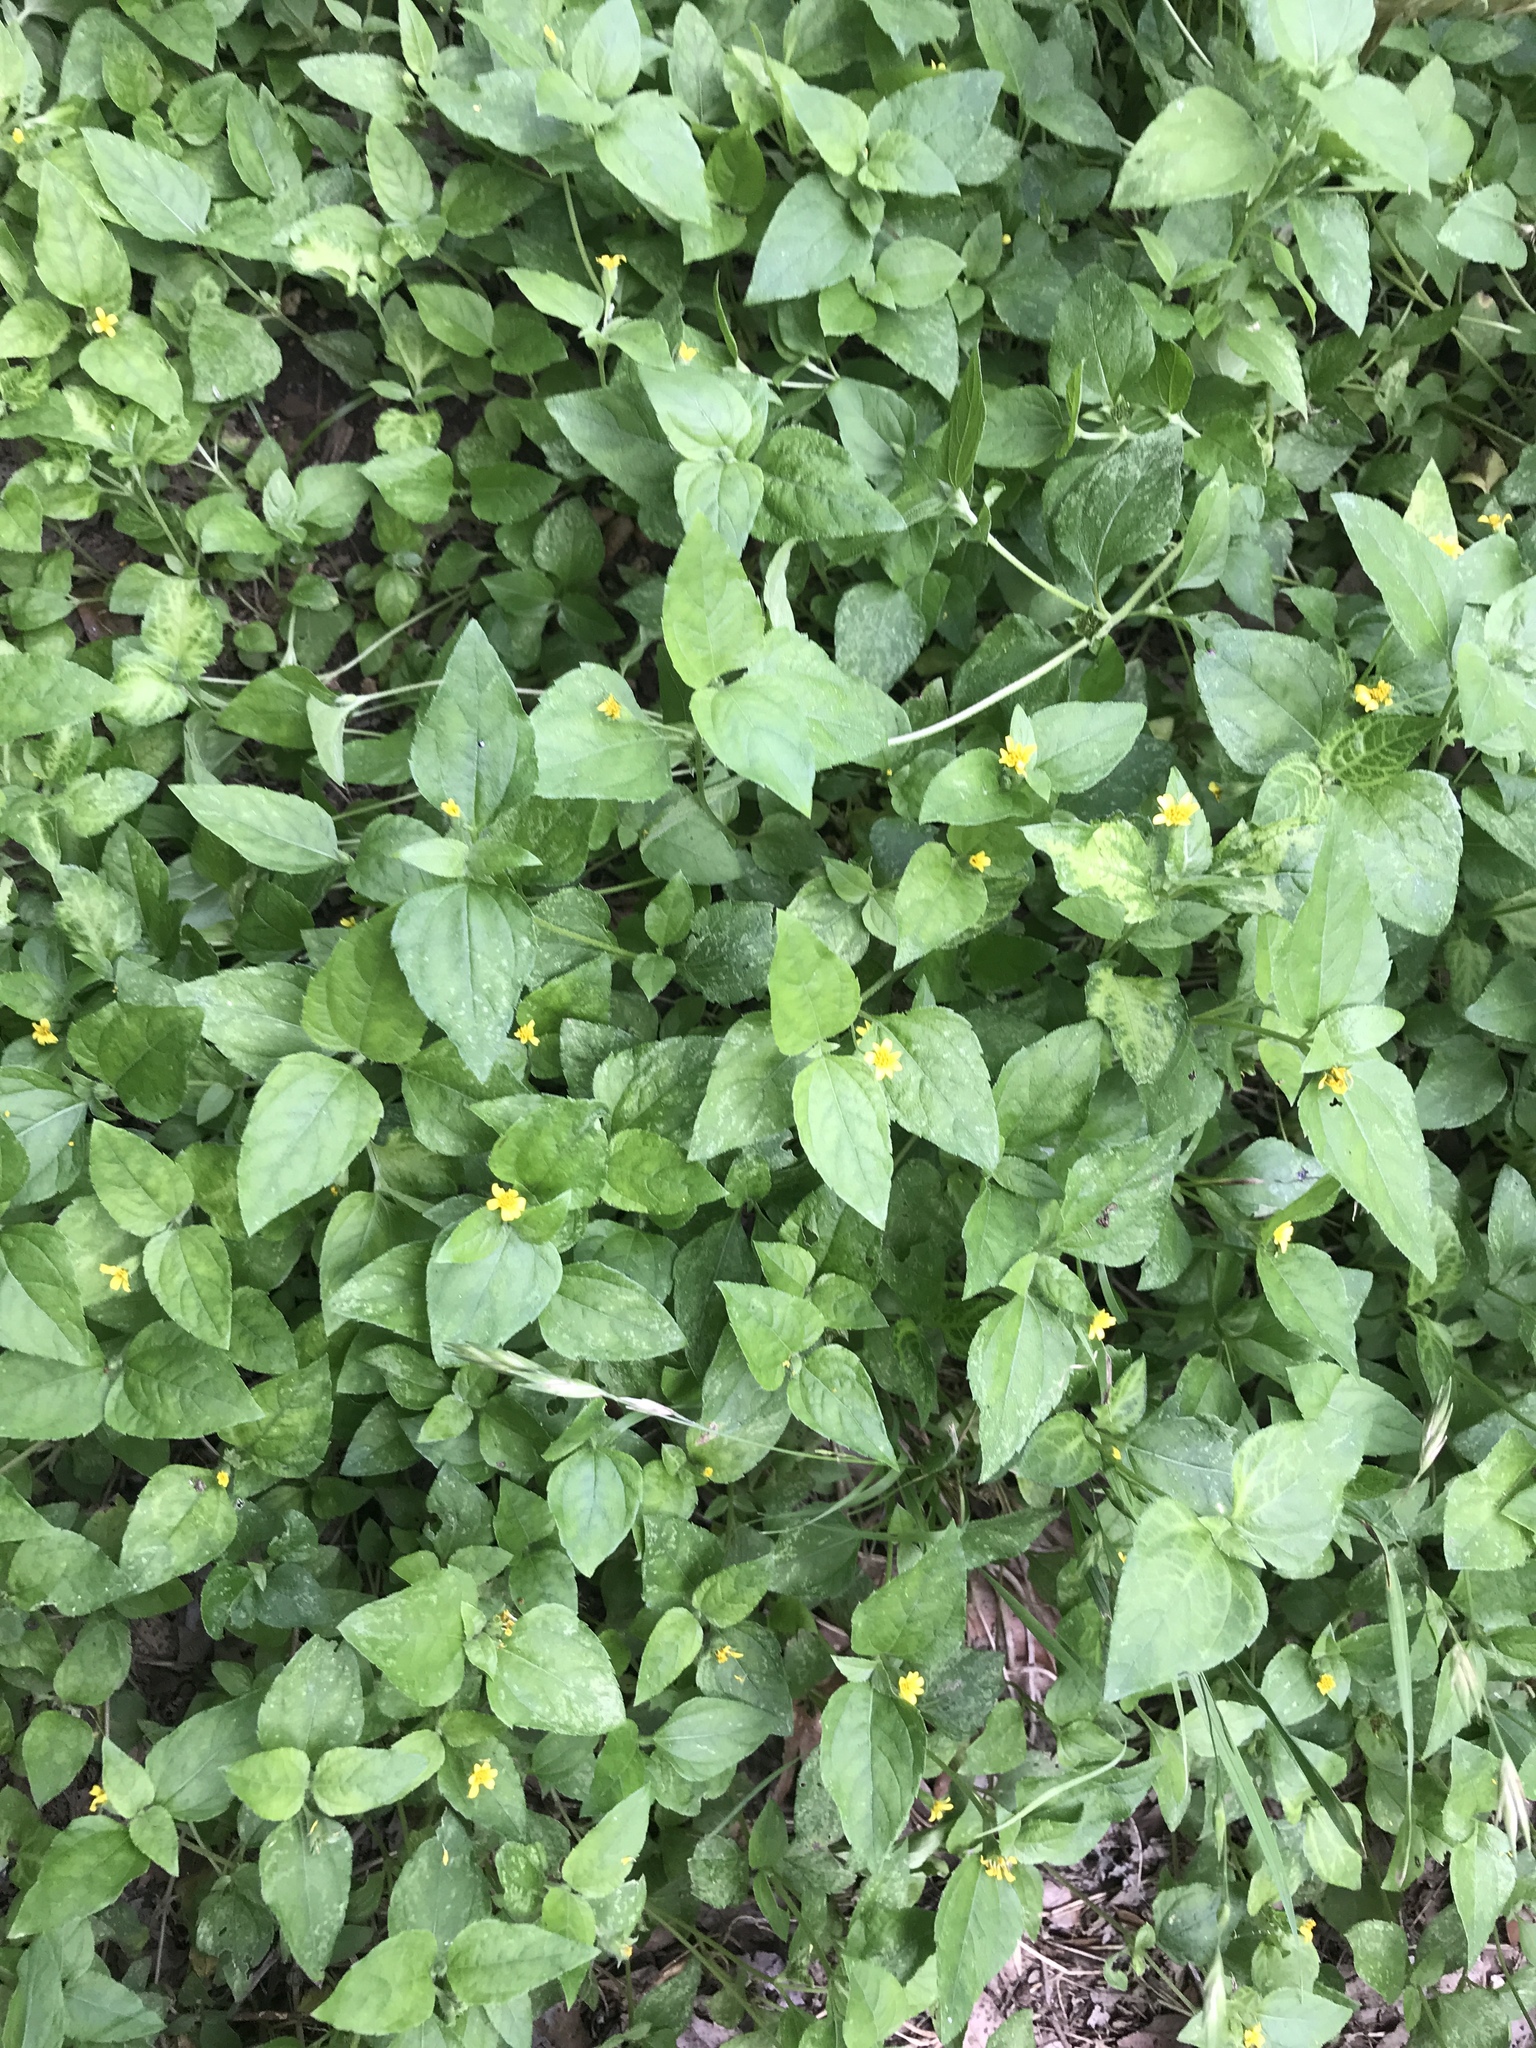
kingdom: Plantae
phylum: Tracheophyta
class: Magnoliopsida
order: Asterales
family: Asteraceae
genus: Calyptocarpus
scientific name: Calyptocarpus vialis
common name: Straggler daisy
